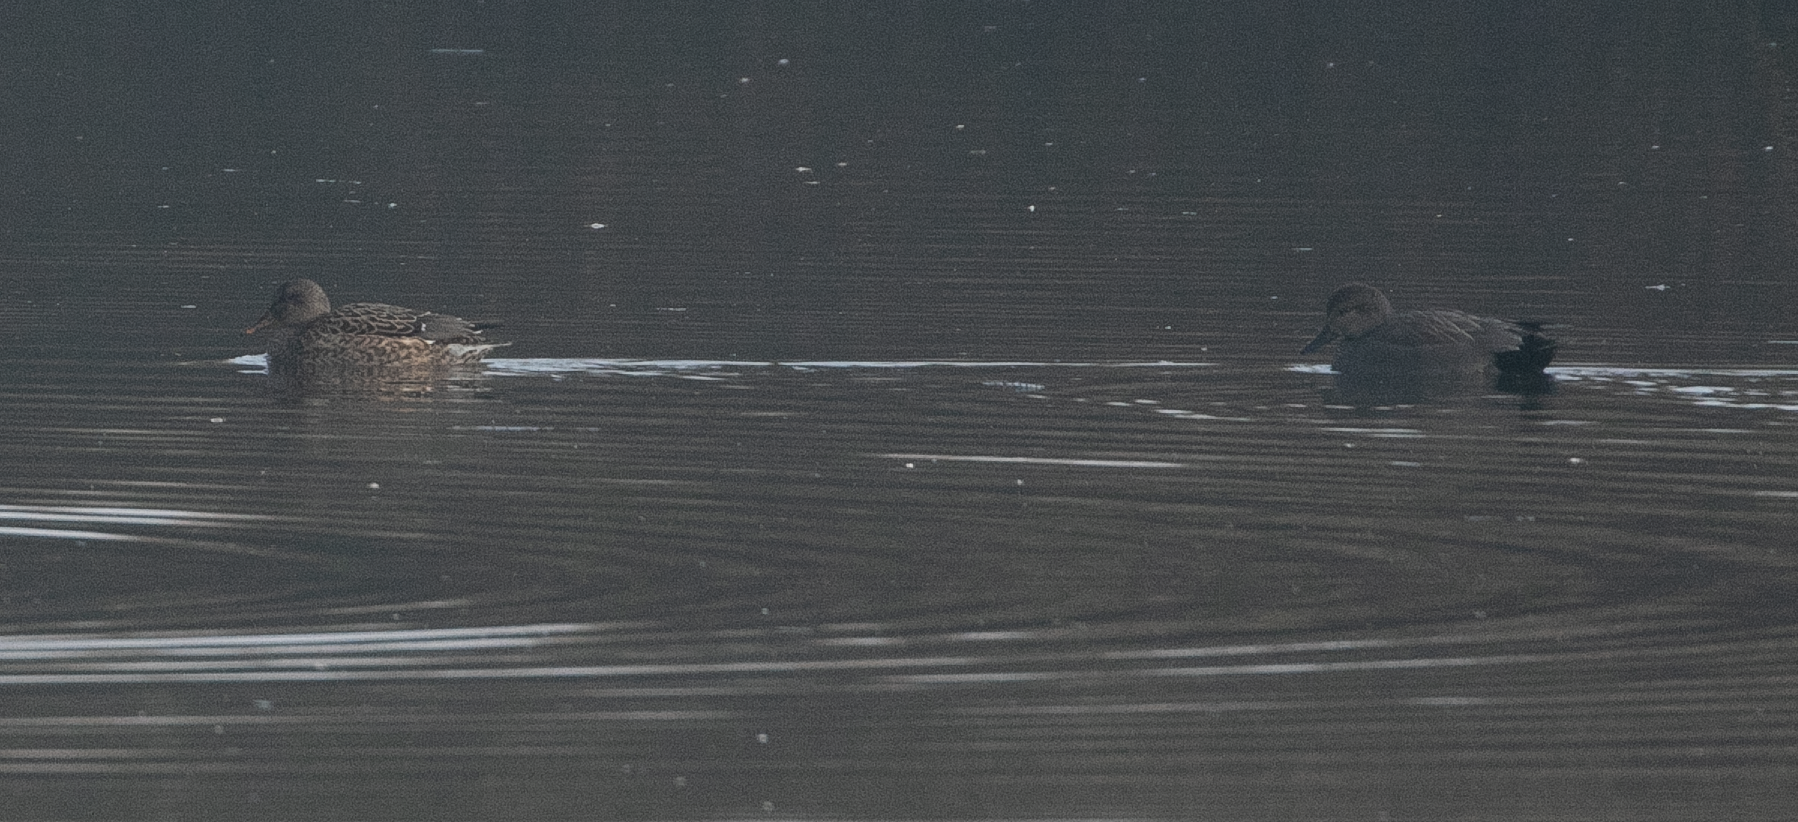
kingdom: Animalia
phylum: Chordata
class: Aves
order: Anseriformes
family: Anatidae
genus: Mareca
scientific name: Mareca strepera
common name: Gadwall
